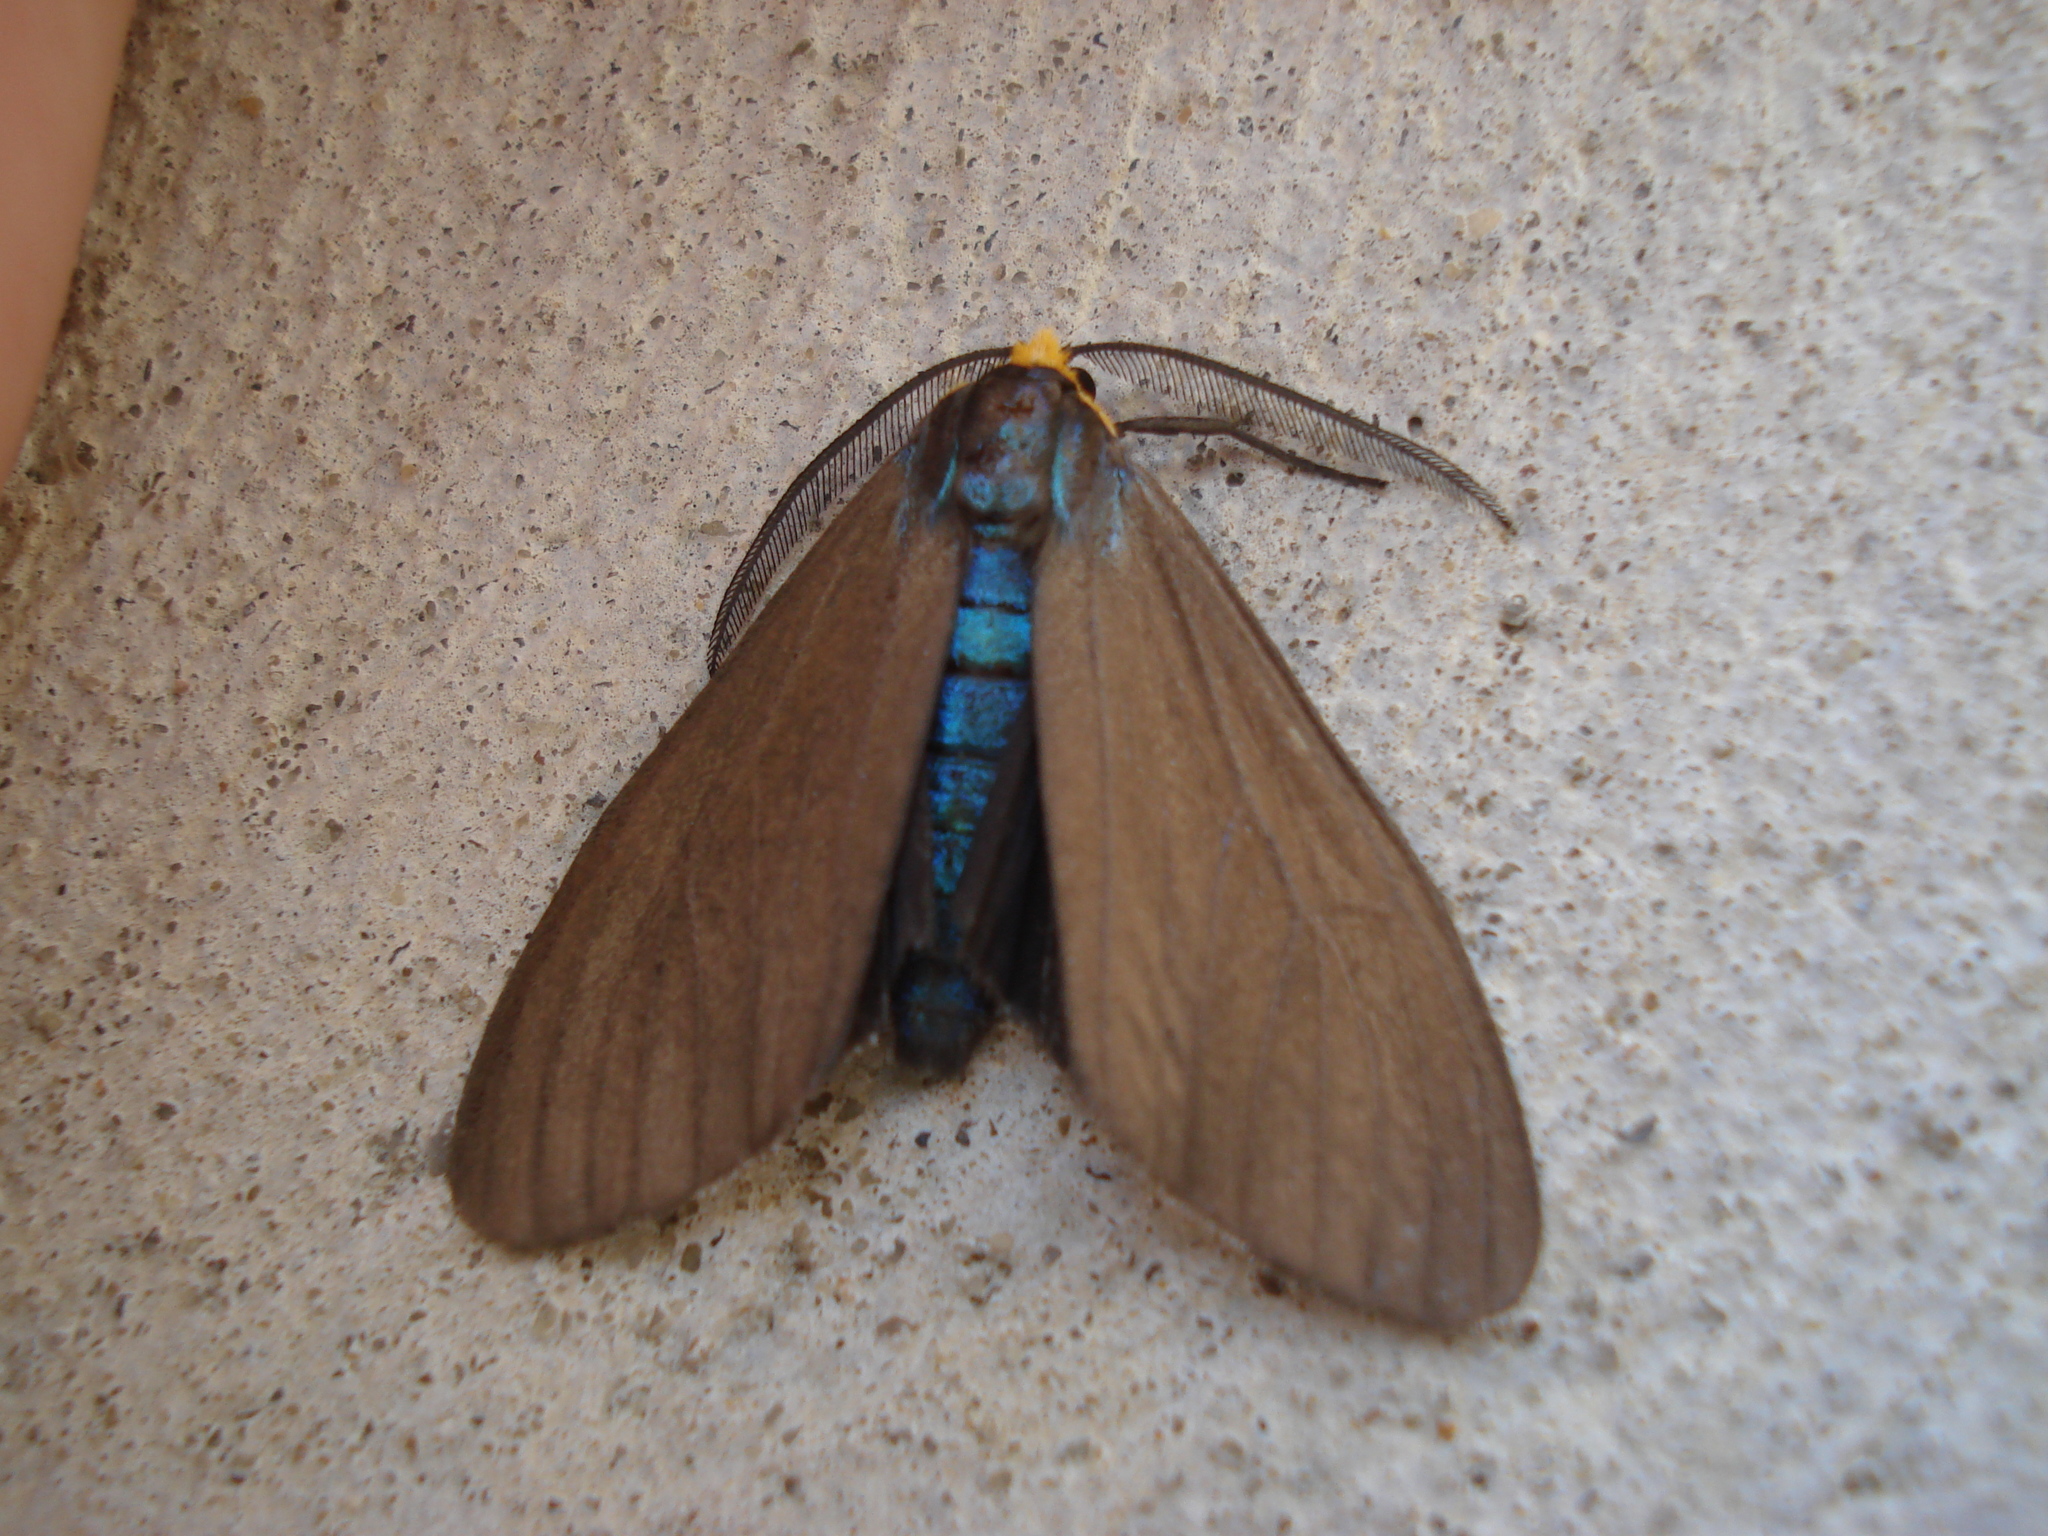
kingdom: Animalia
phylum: Arthropoda
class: Insecta
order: Lepidoptera
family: Erebidae
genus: Ctenucha
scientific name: Ctenucha virginica
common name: Virginia ctenucha moth
